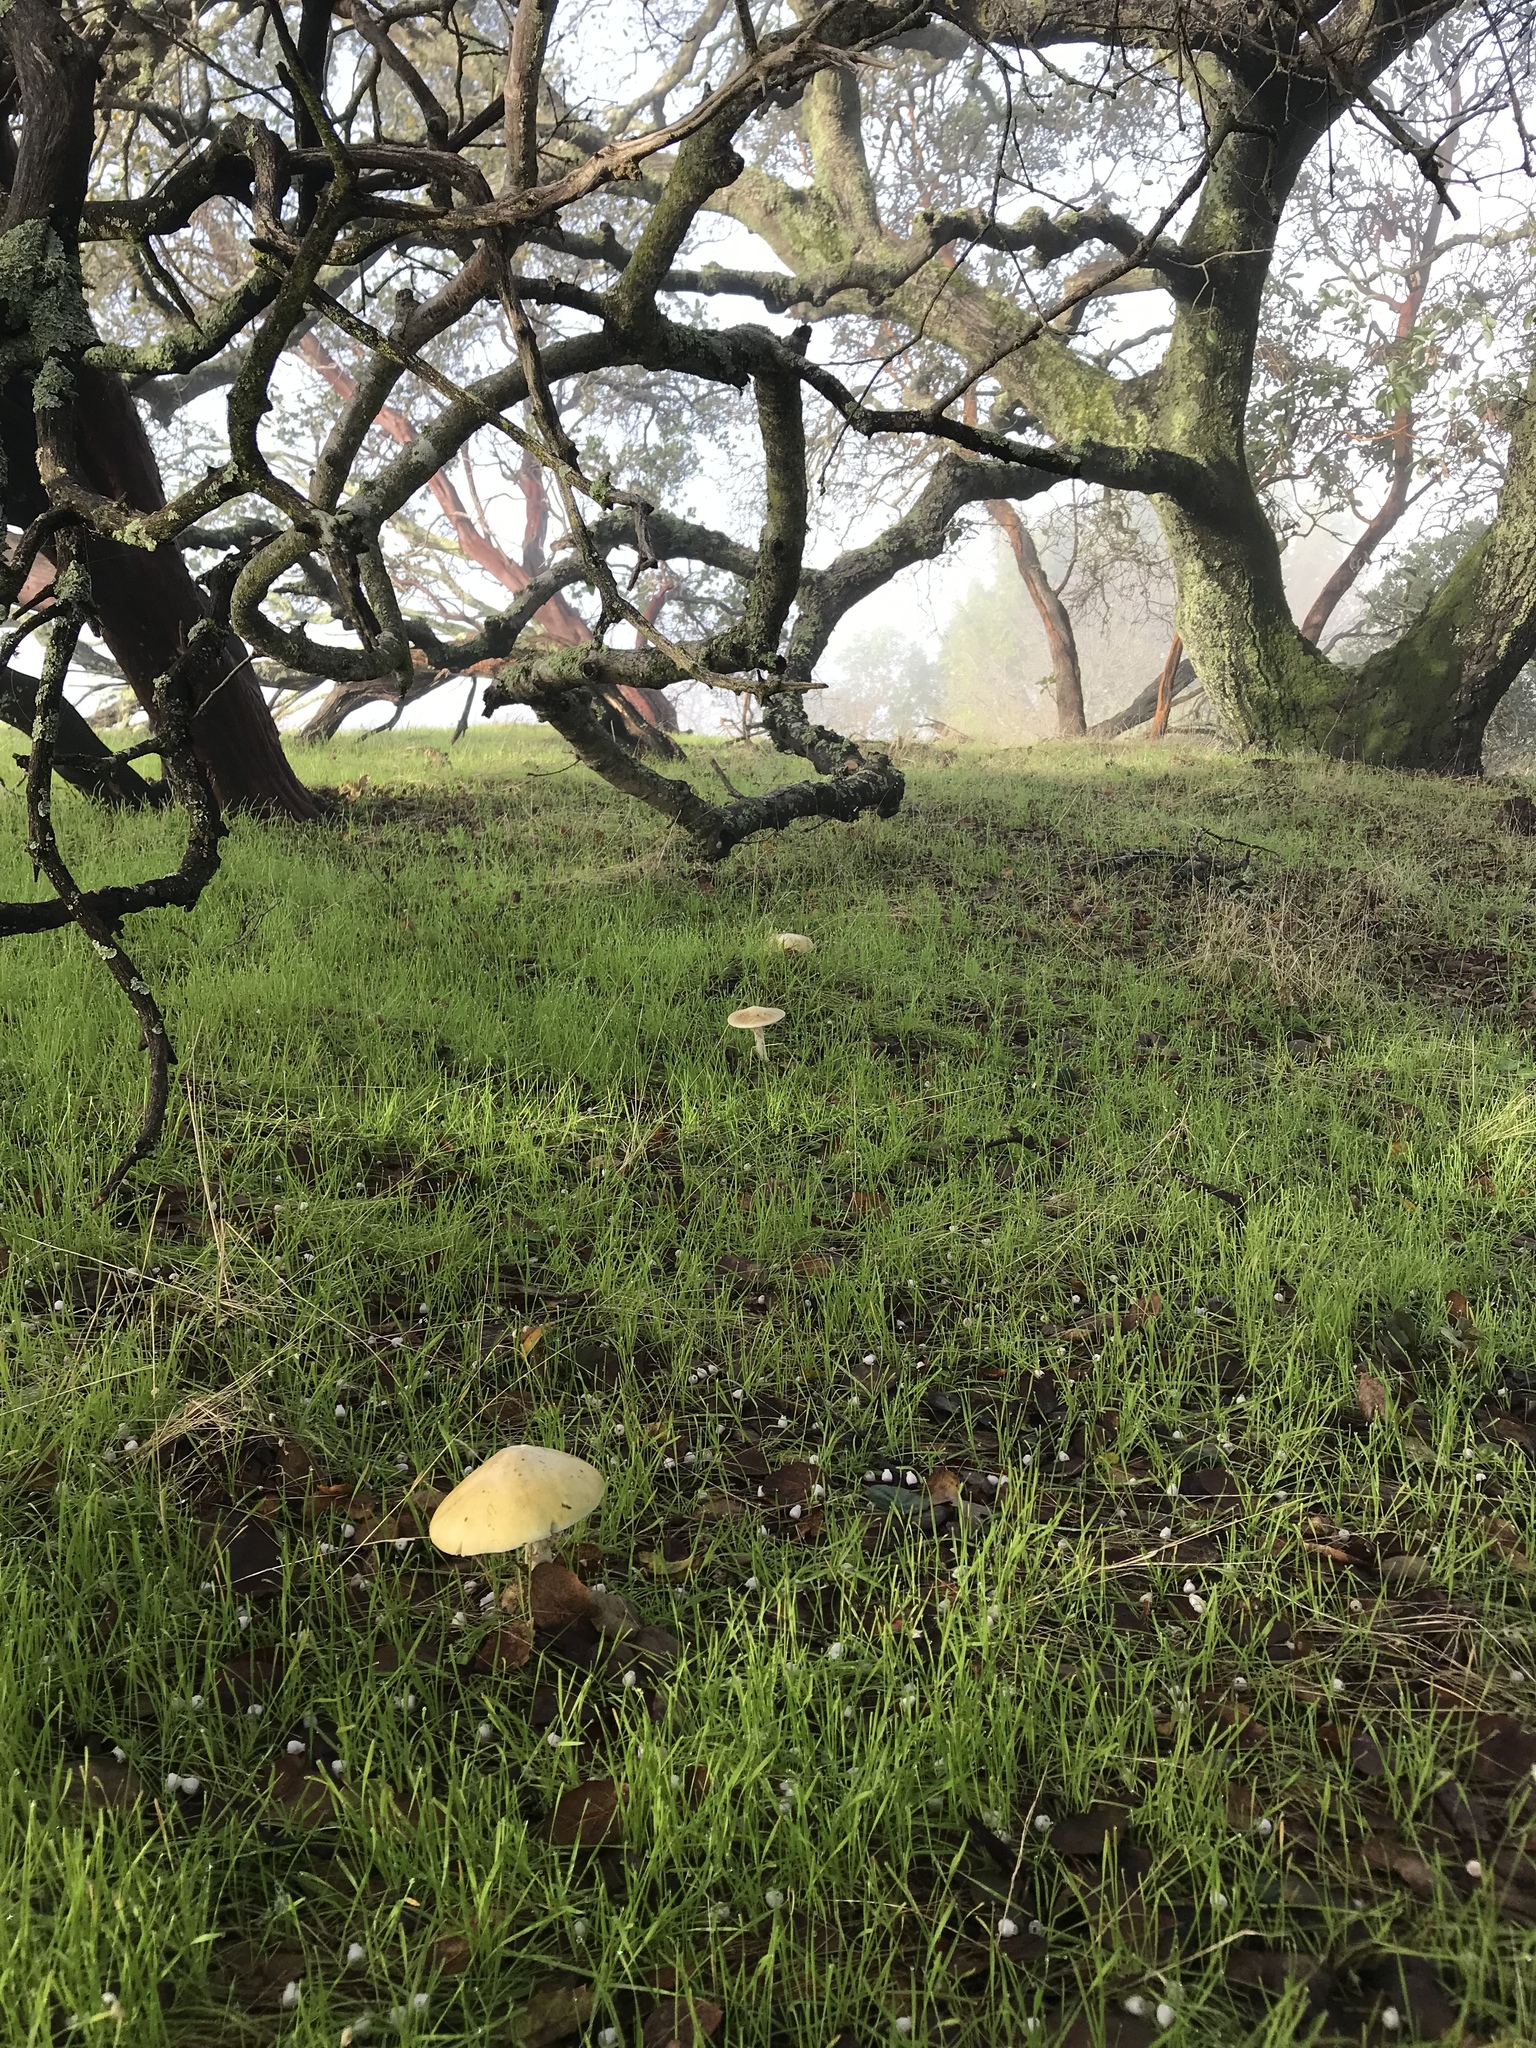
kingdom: Fungi
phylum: Basidiomycota
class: Agaricomycetes
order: Agaricales
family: Amanitaceae
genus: Amanita
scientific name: Amanita phalloides
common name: Death cap
